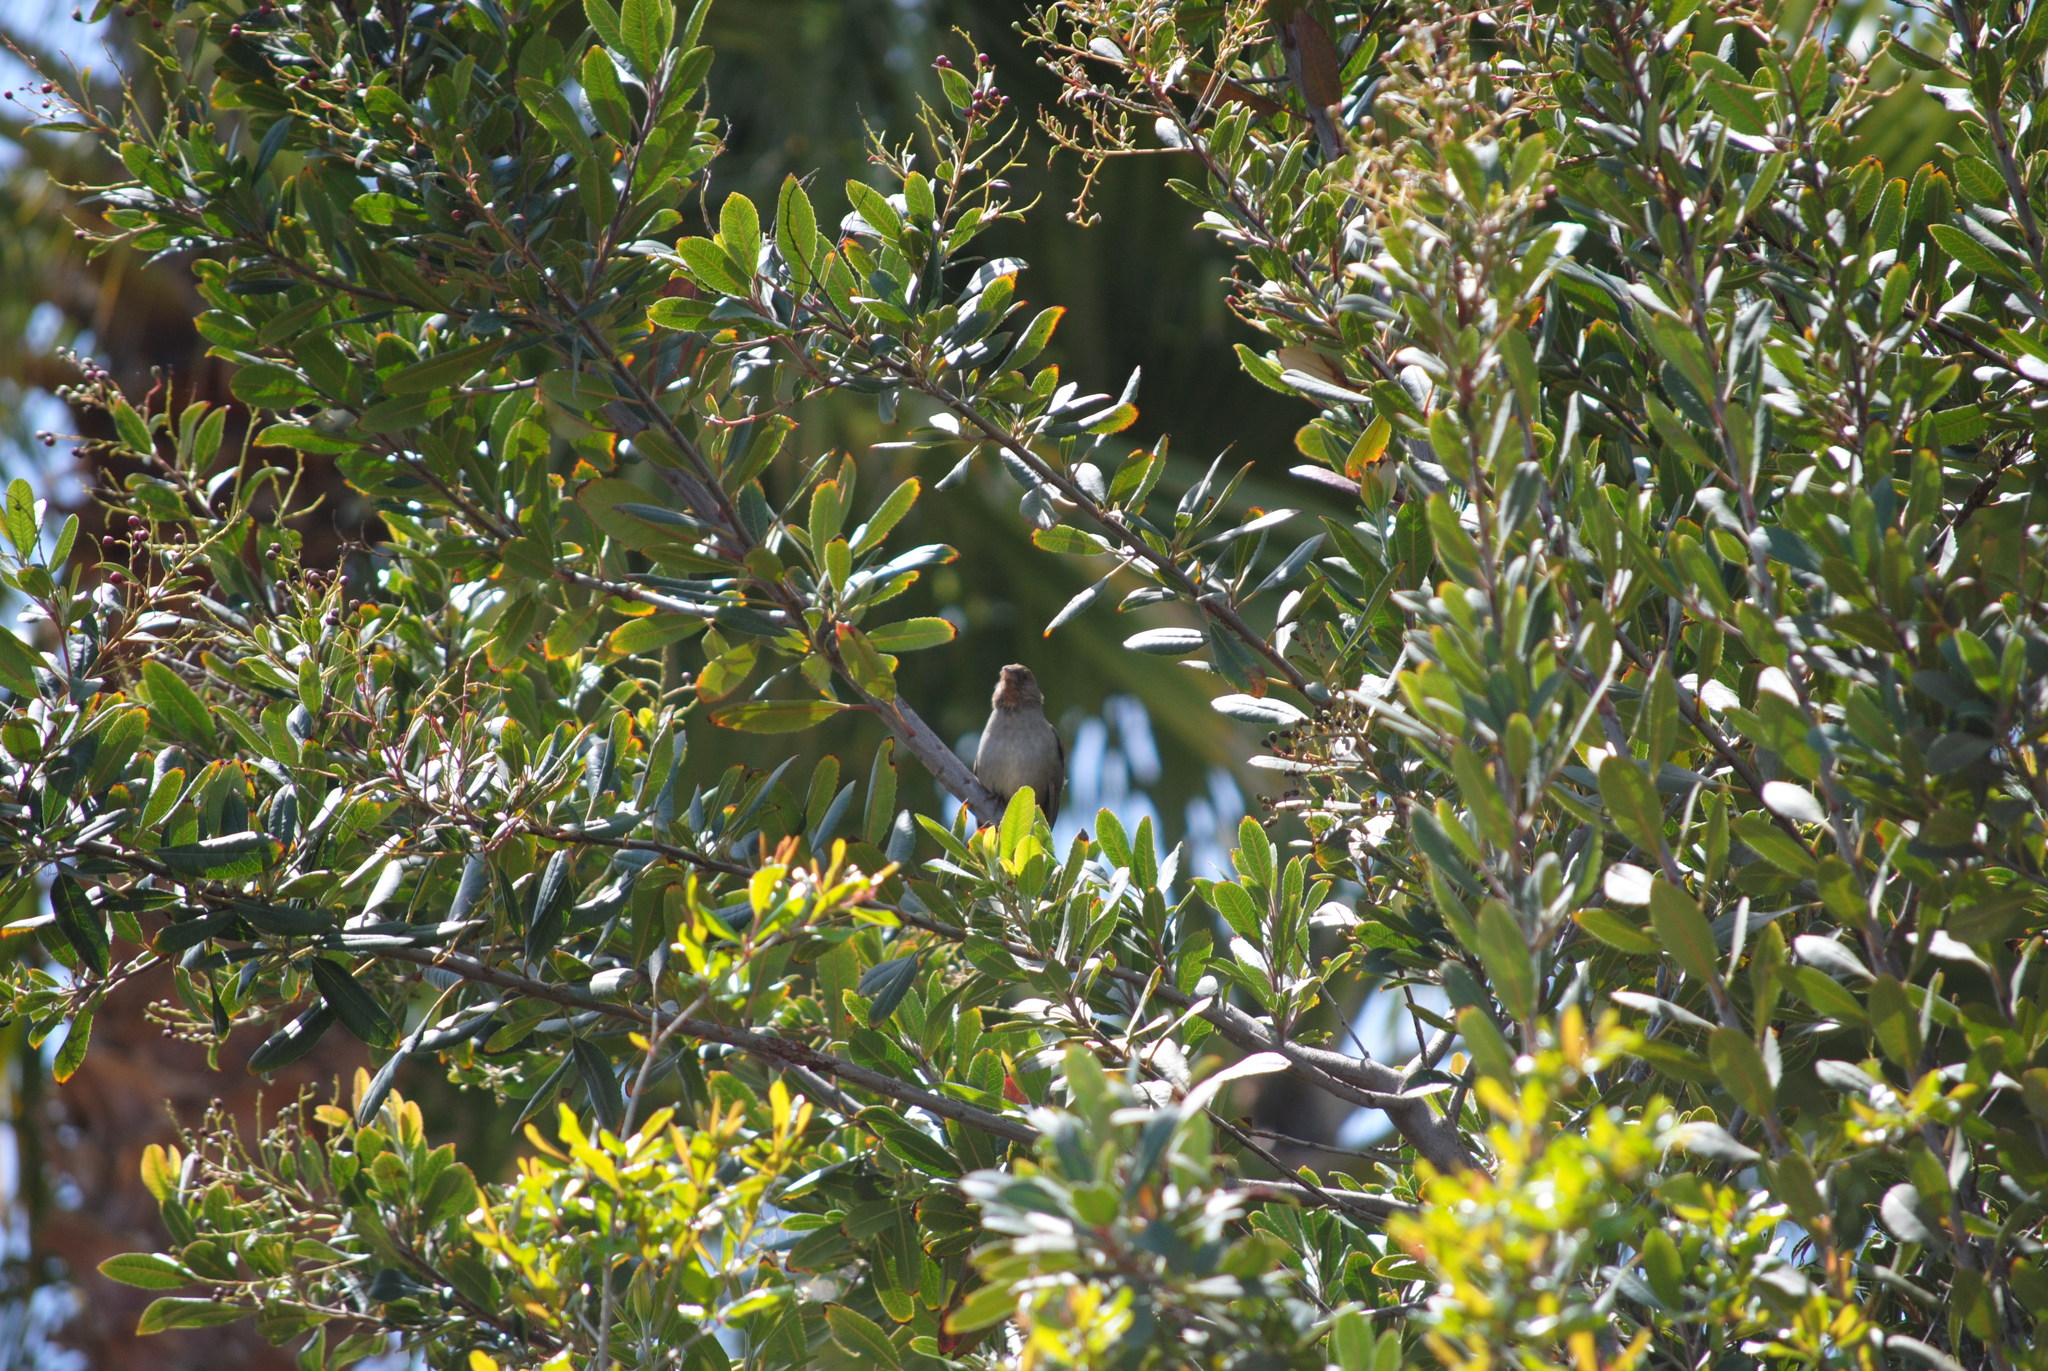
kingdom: Animalia
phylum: Chordata
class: Aves
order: Passeriformes
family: Passerellidae
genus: Melozone
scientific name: Melozone crissalis
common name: California towhee
